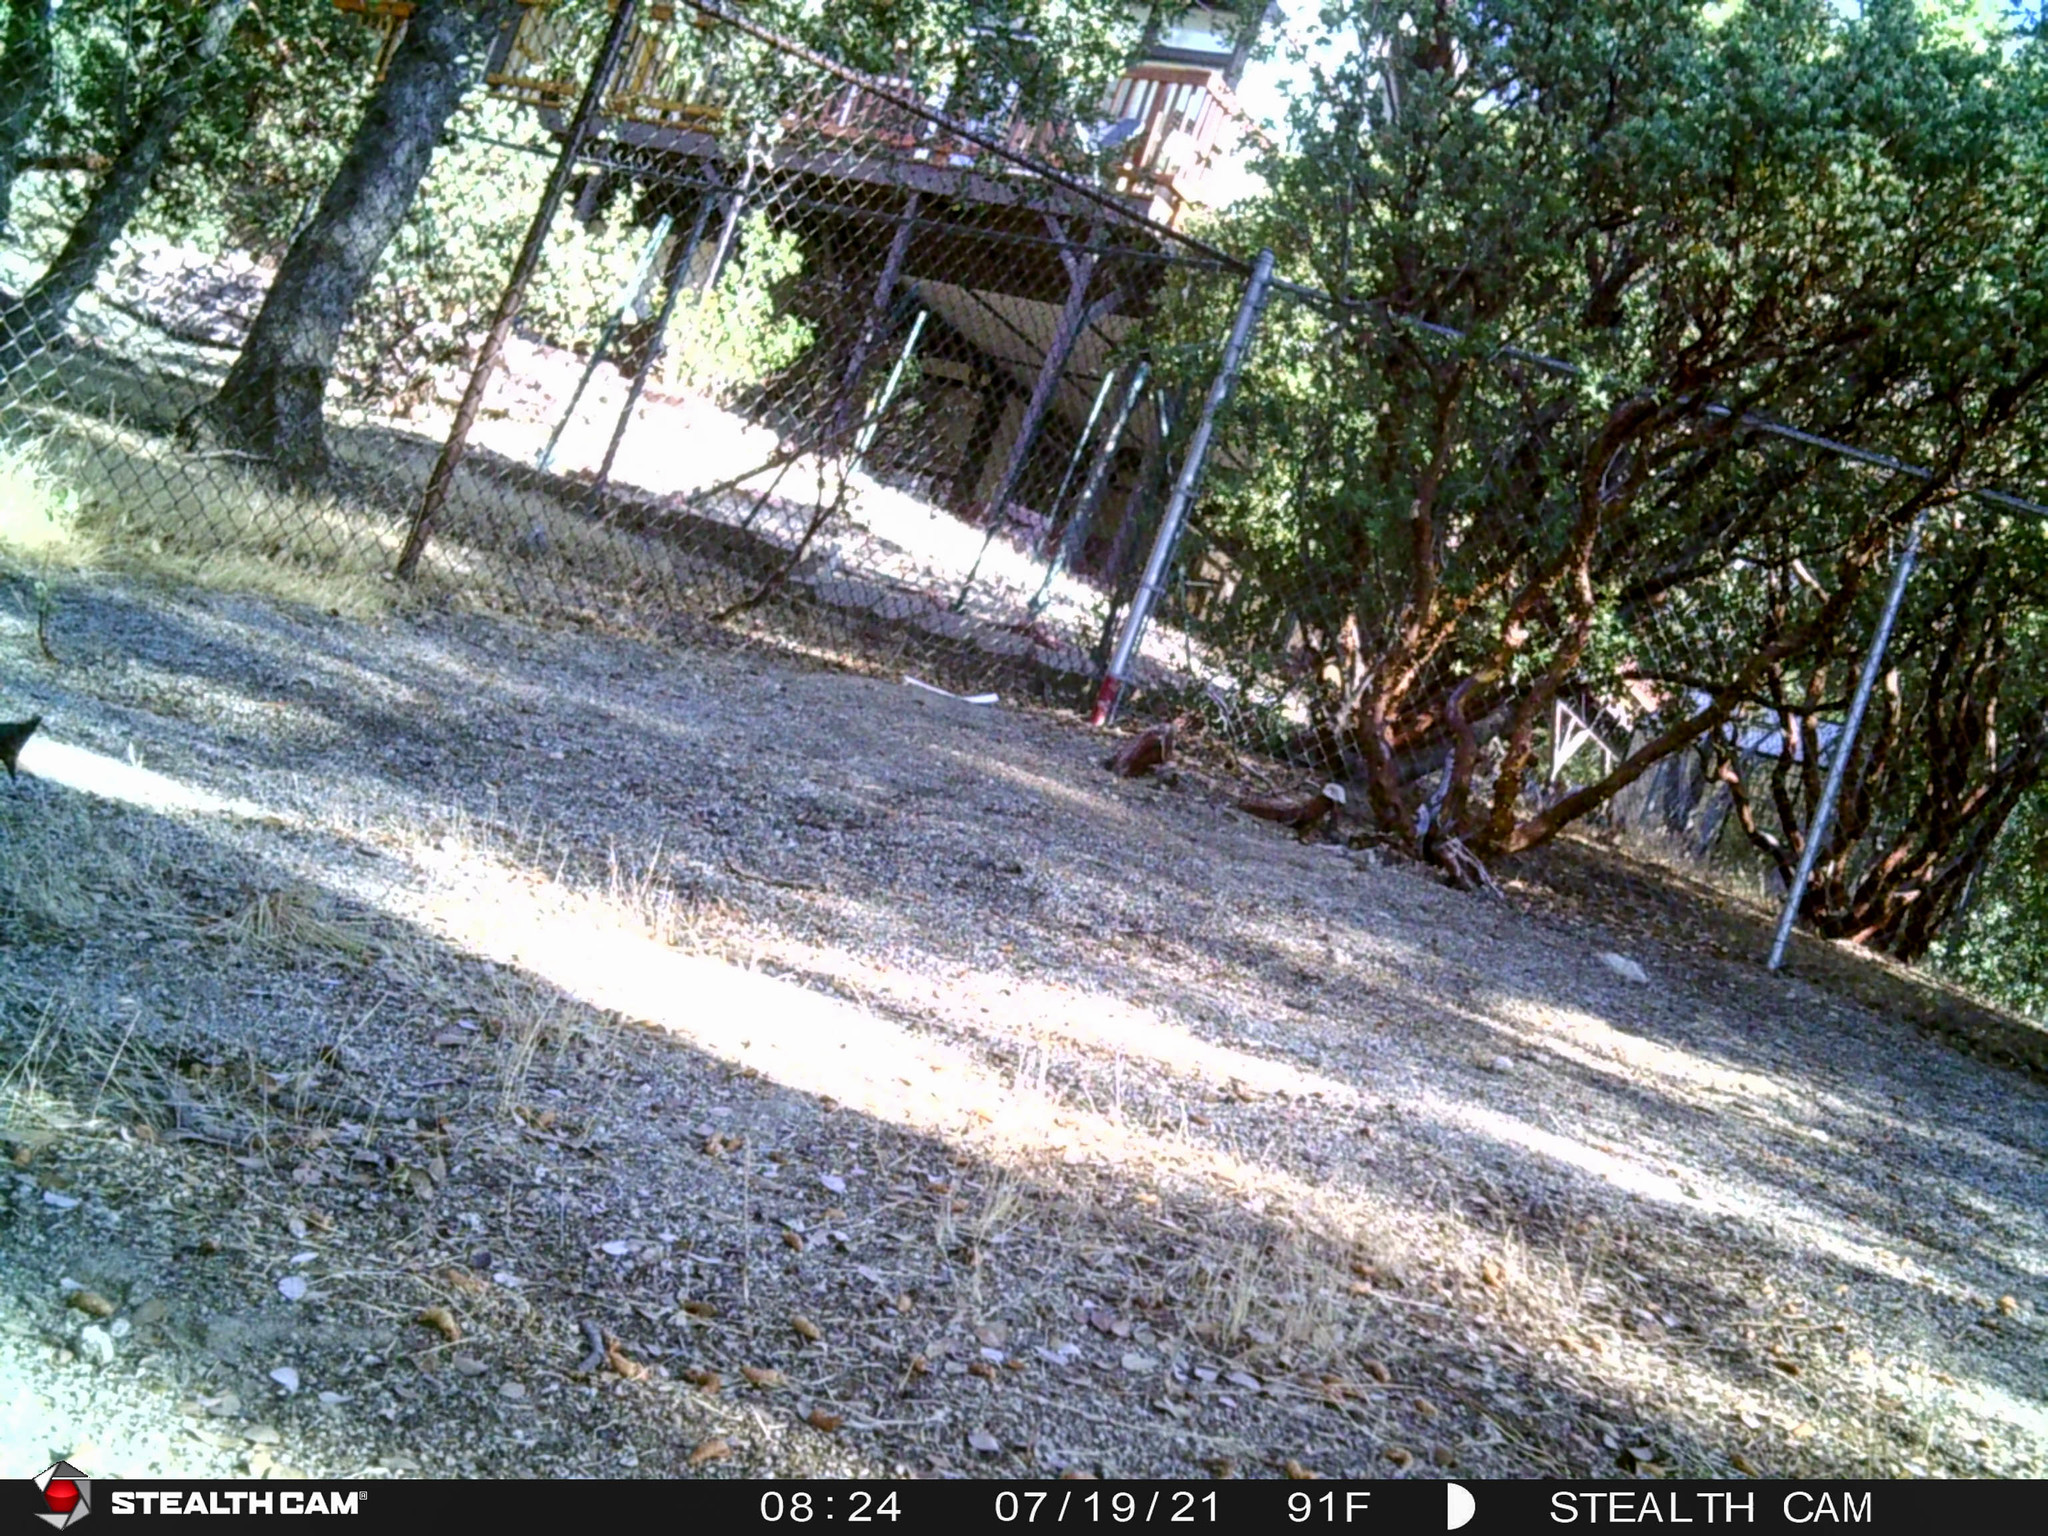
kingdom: Animalia
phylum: Chordata
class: Aves
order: Passeriformes
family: Corvidae
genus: Cyanocitta
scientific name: Cyanocitta stelleri
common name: Steller's jay
